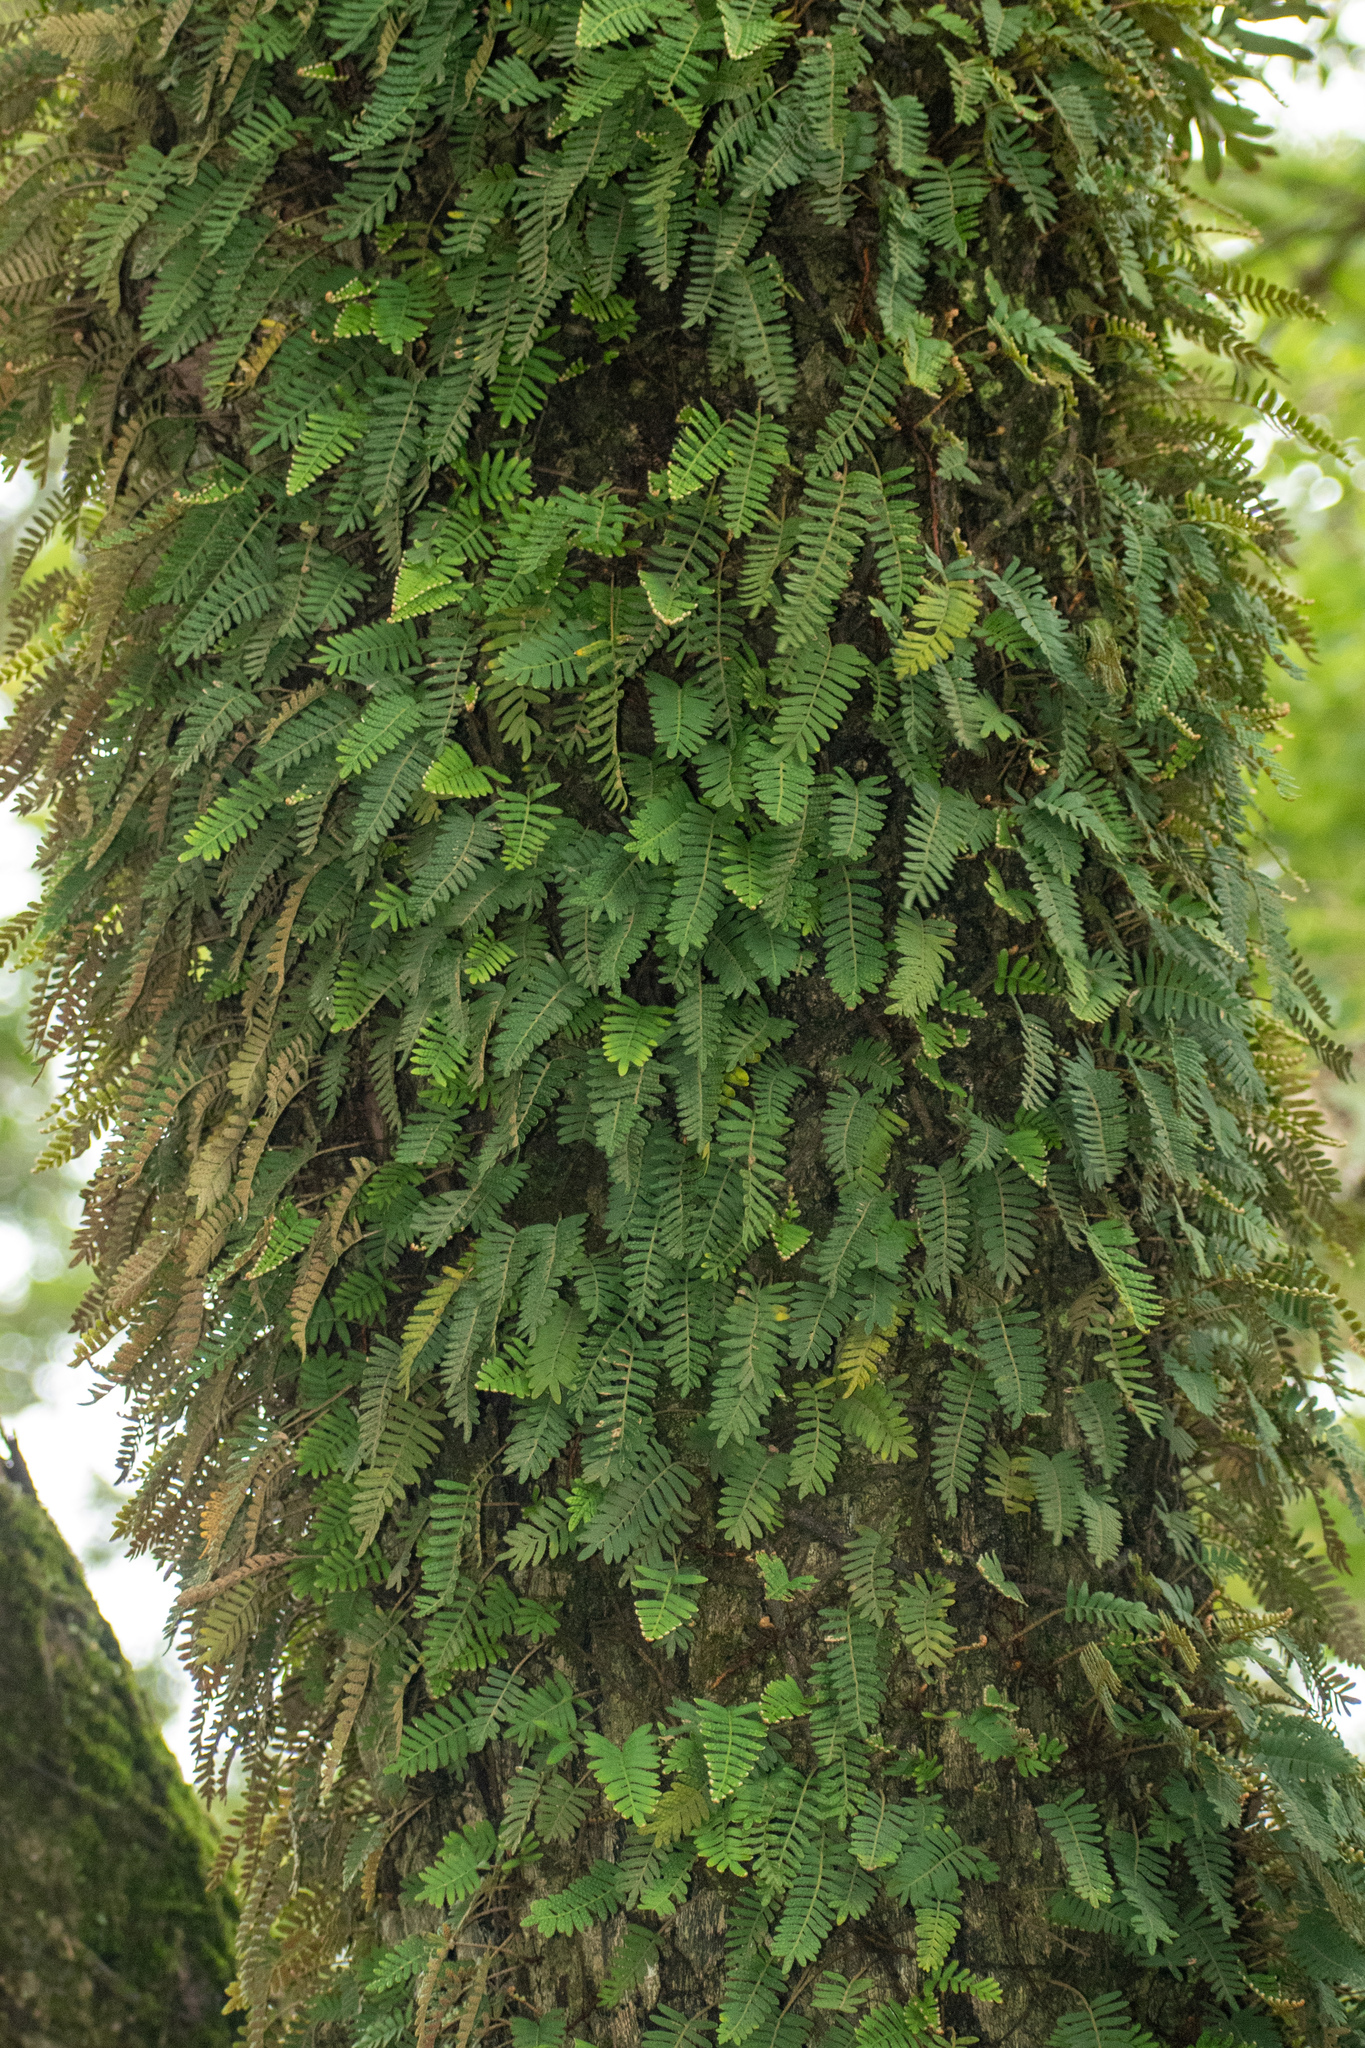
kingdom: Plantae
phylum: Tracheophyta
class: Polypodiopsida
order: Polypodiales
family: Polypodiaceae
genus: Pleopeltis
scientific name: Pleopeltis minima
